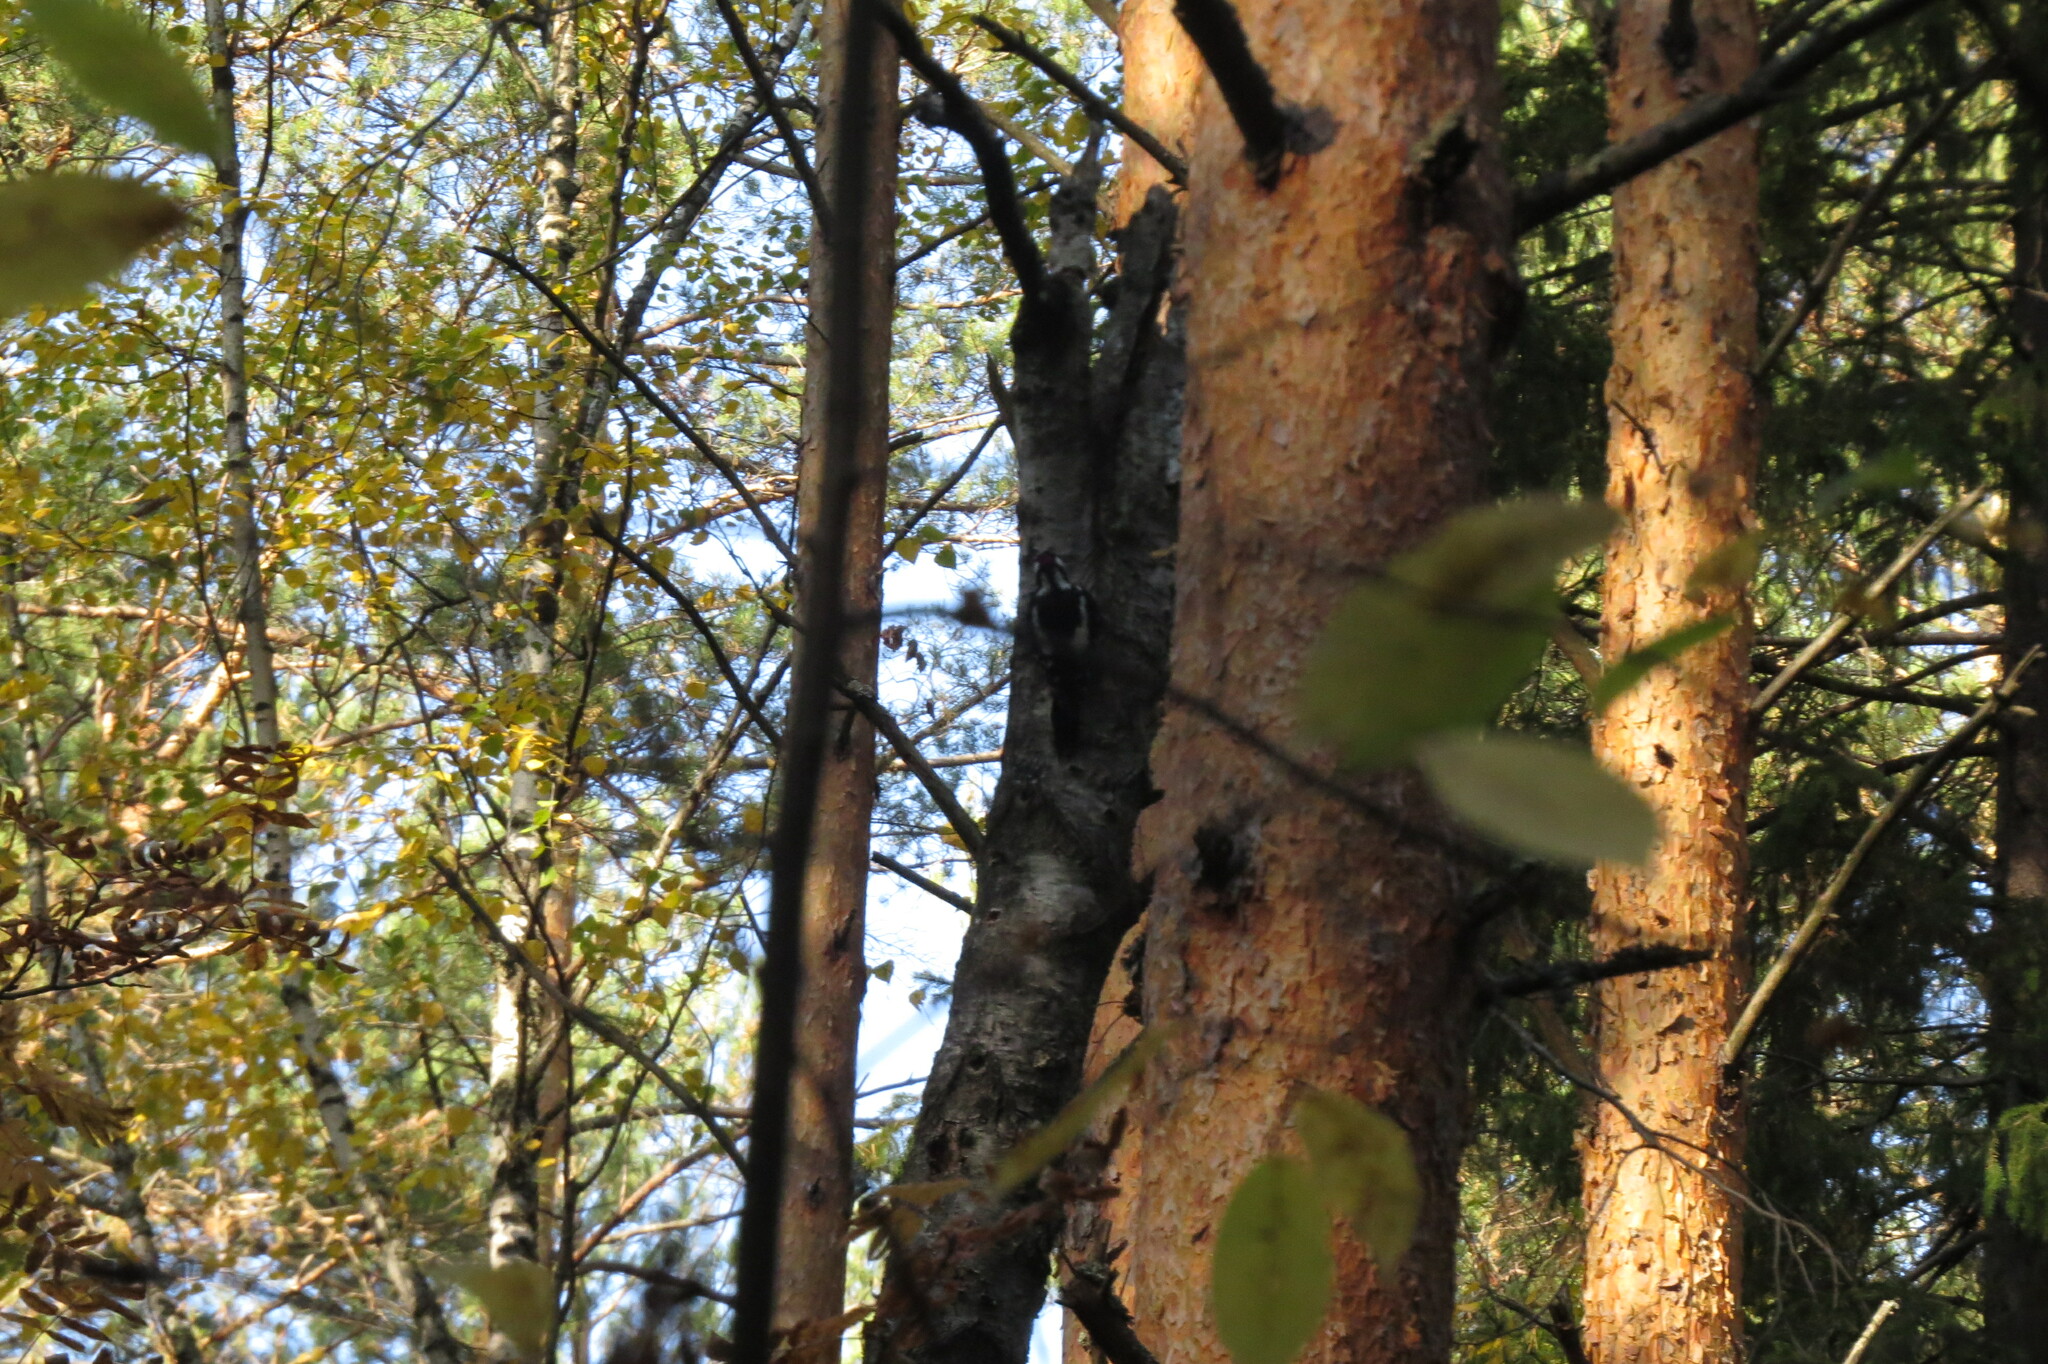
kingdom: Animalia
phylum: Chordata
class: Aves
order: Piciformes
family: Picidae
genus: Dendrocopos
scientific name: Dendrocopos major
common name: Great spotted woodpecker
